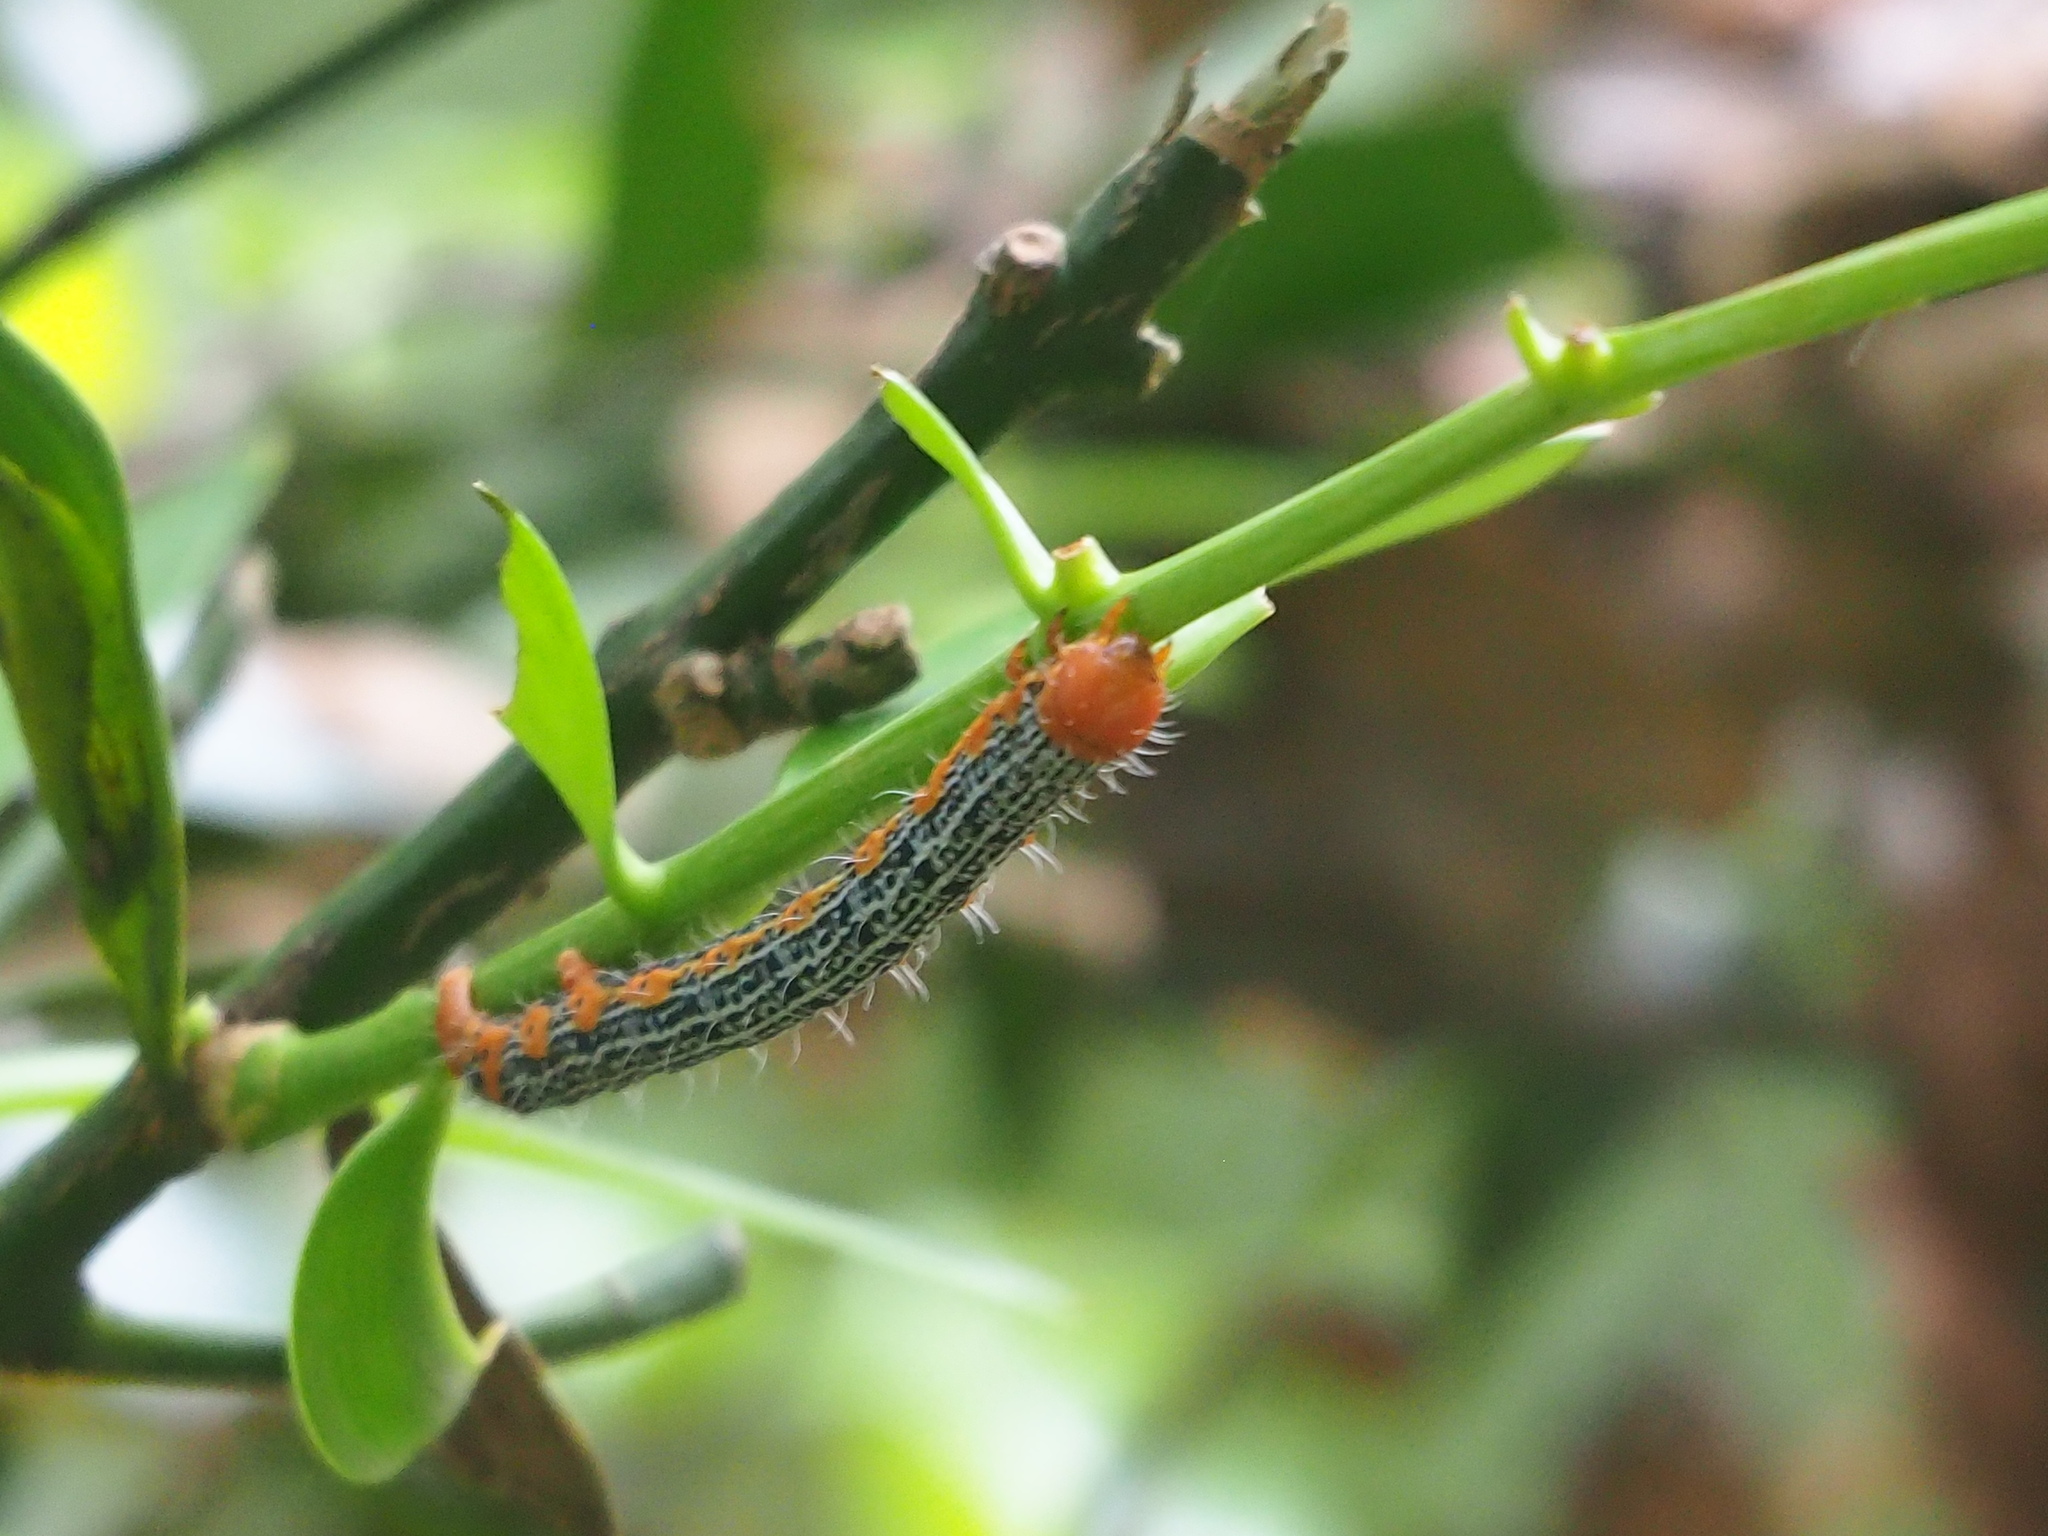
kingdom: Animalia
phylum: Arthropoda
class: Insecta
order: Lepidoptera
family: Geometridae
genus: Milionia
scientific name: Milionia basalis
